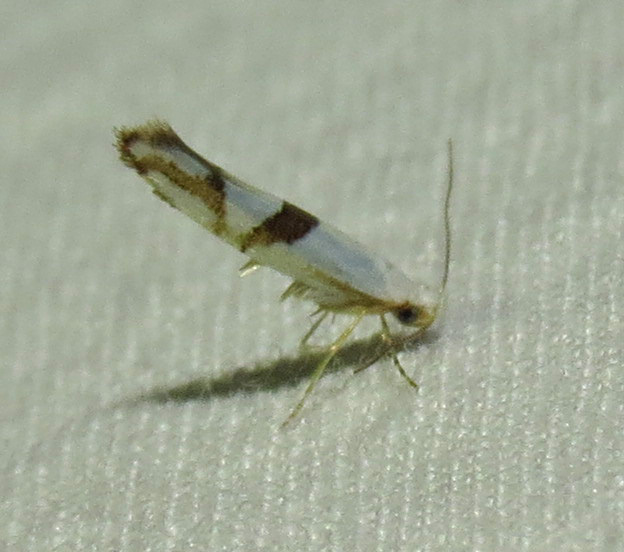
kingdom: Animalia
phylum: Arthropoda
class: Insecta
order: Lepidoptera
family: Argyresthiidae
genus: Argyresthia
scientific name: Argyresthia oreasella
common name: Cherry shoot borer moth
